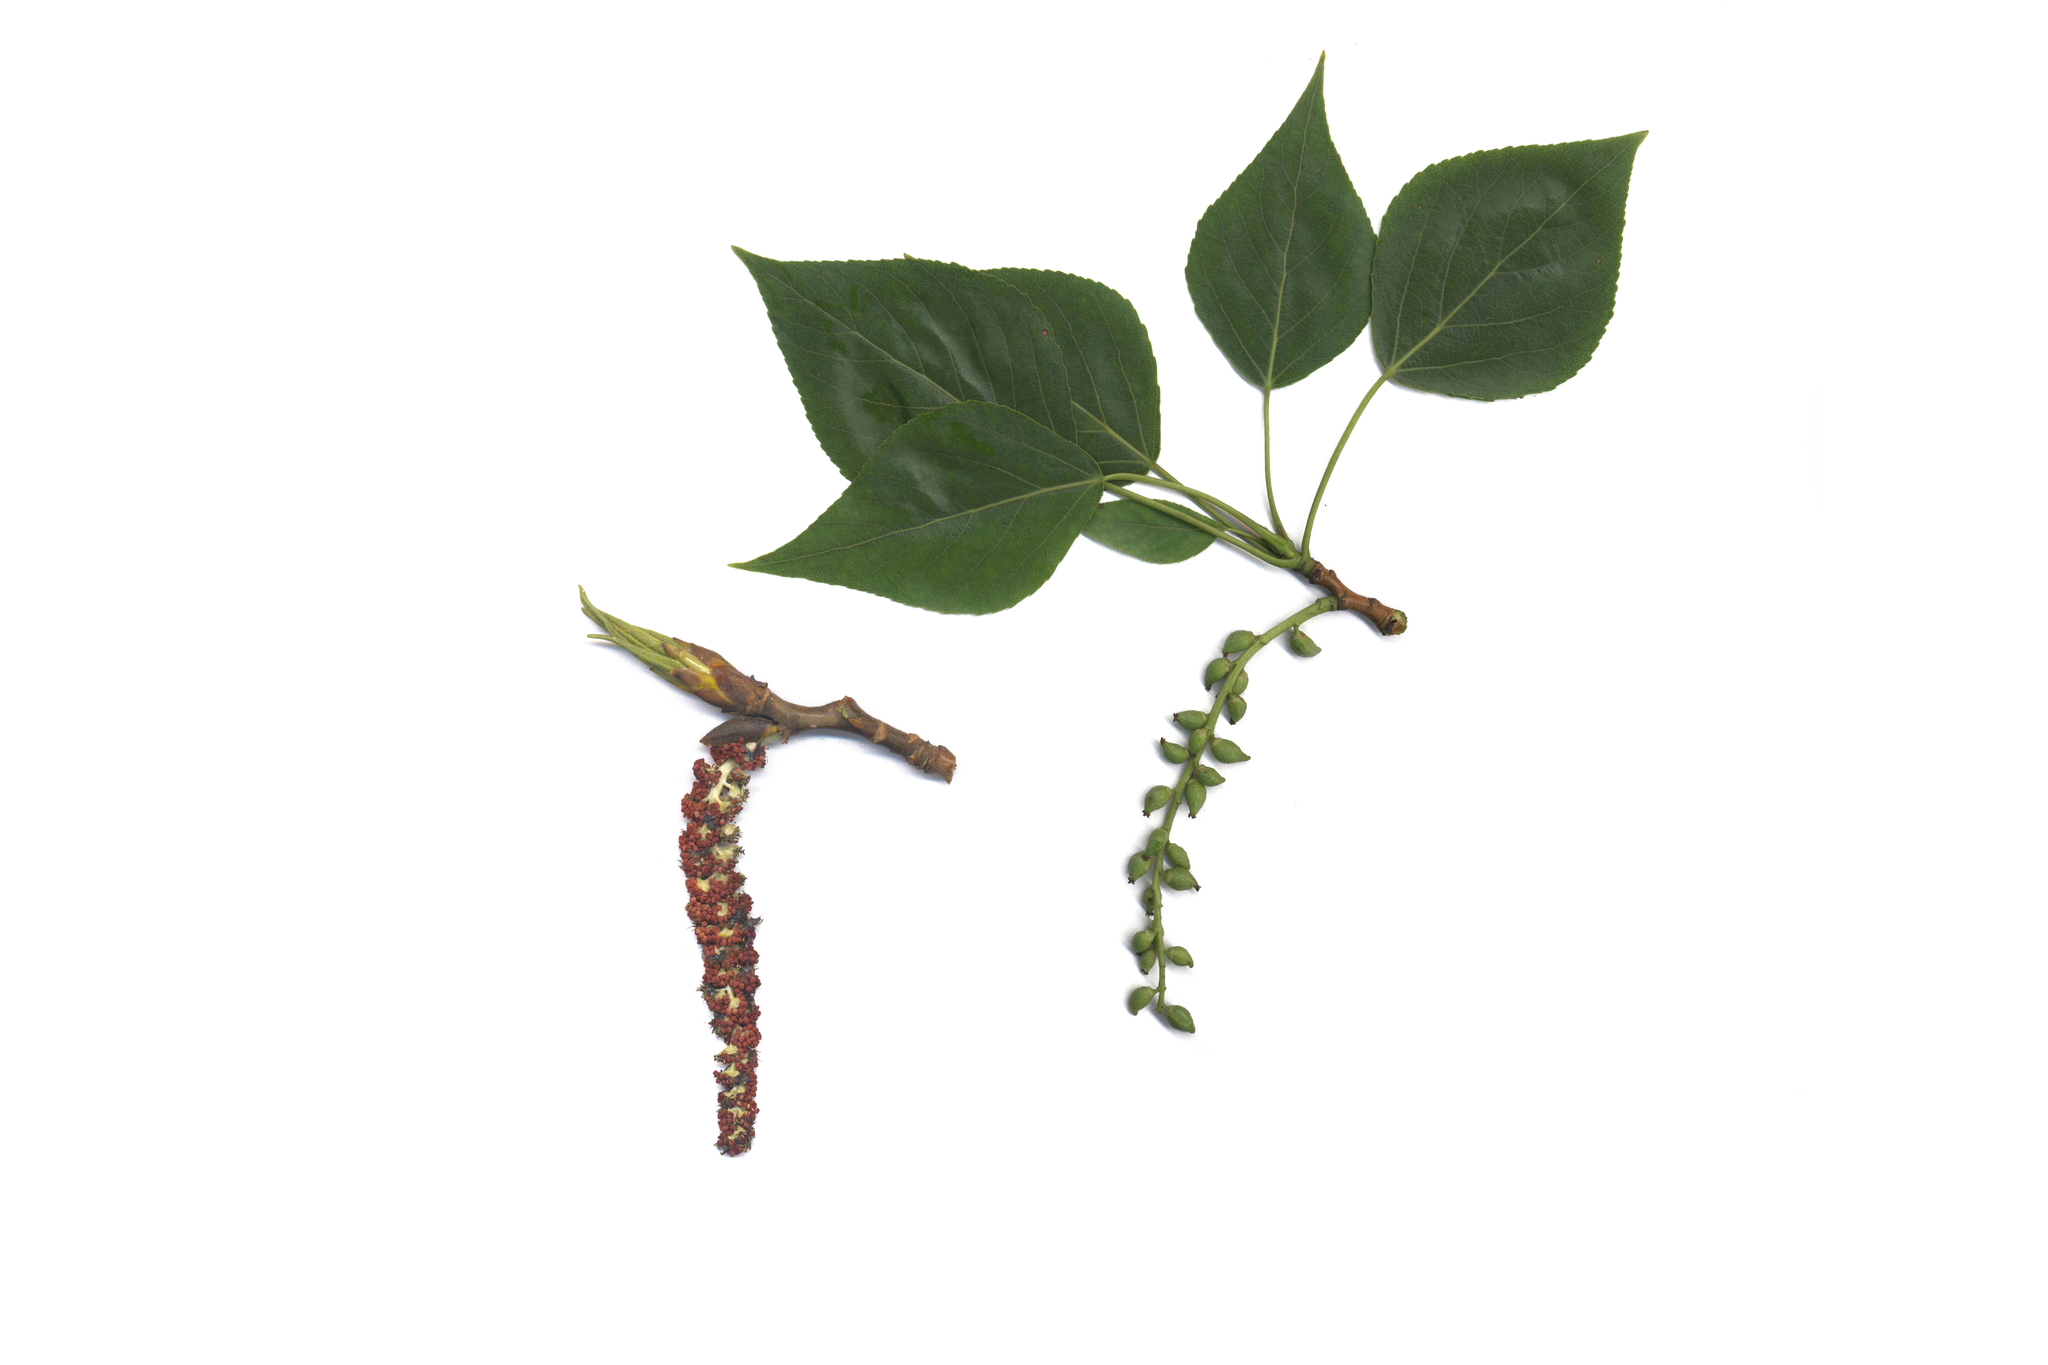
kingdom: Plantae
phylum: Tracheophyta
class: Magnoliopsida
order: Malpighiales
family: Salicaceae
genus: Populus
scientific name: Populus sibirica
